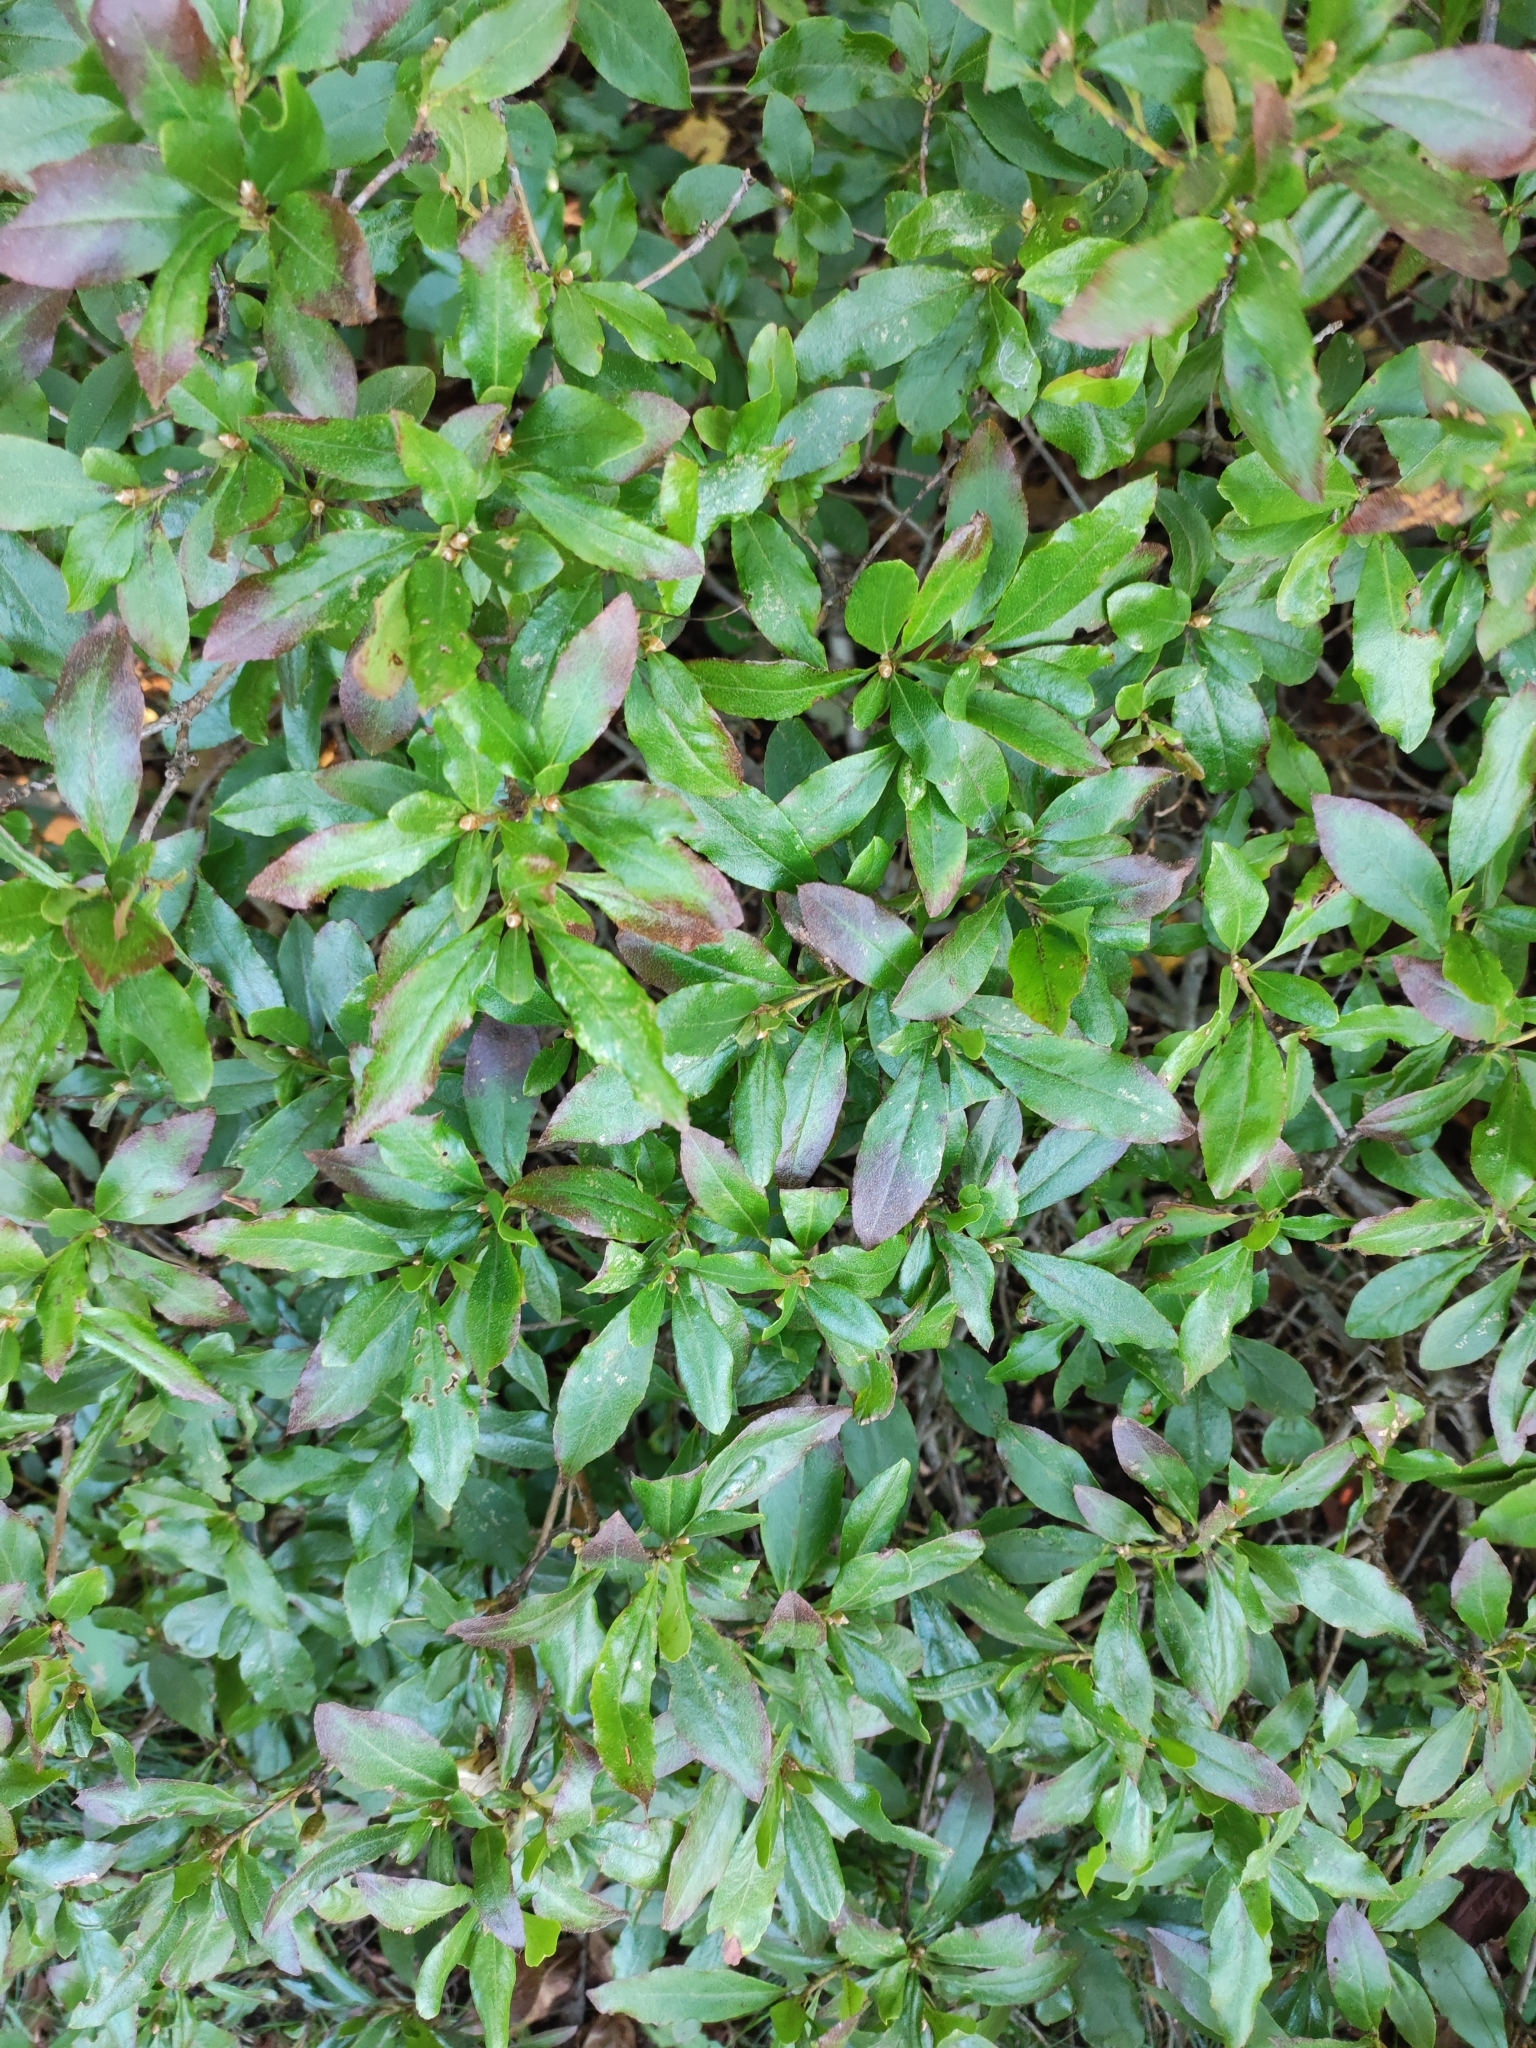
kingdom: Plantae
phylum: Tracheophyta
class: Magnoliopsida
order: Ericales
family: Ericaceae
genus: Rhododendron
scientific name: Rhododendron mucronulatum
